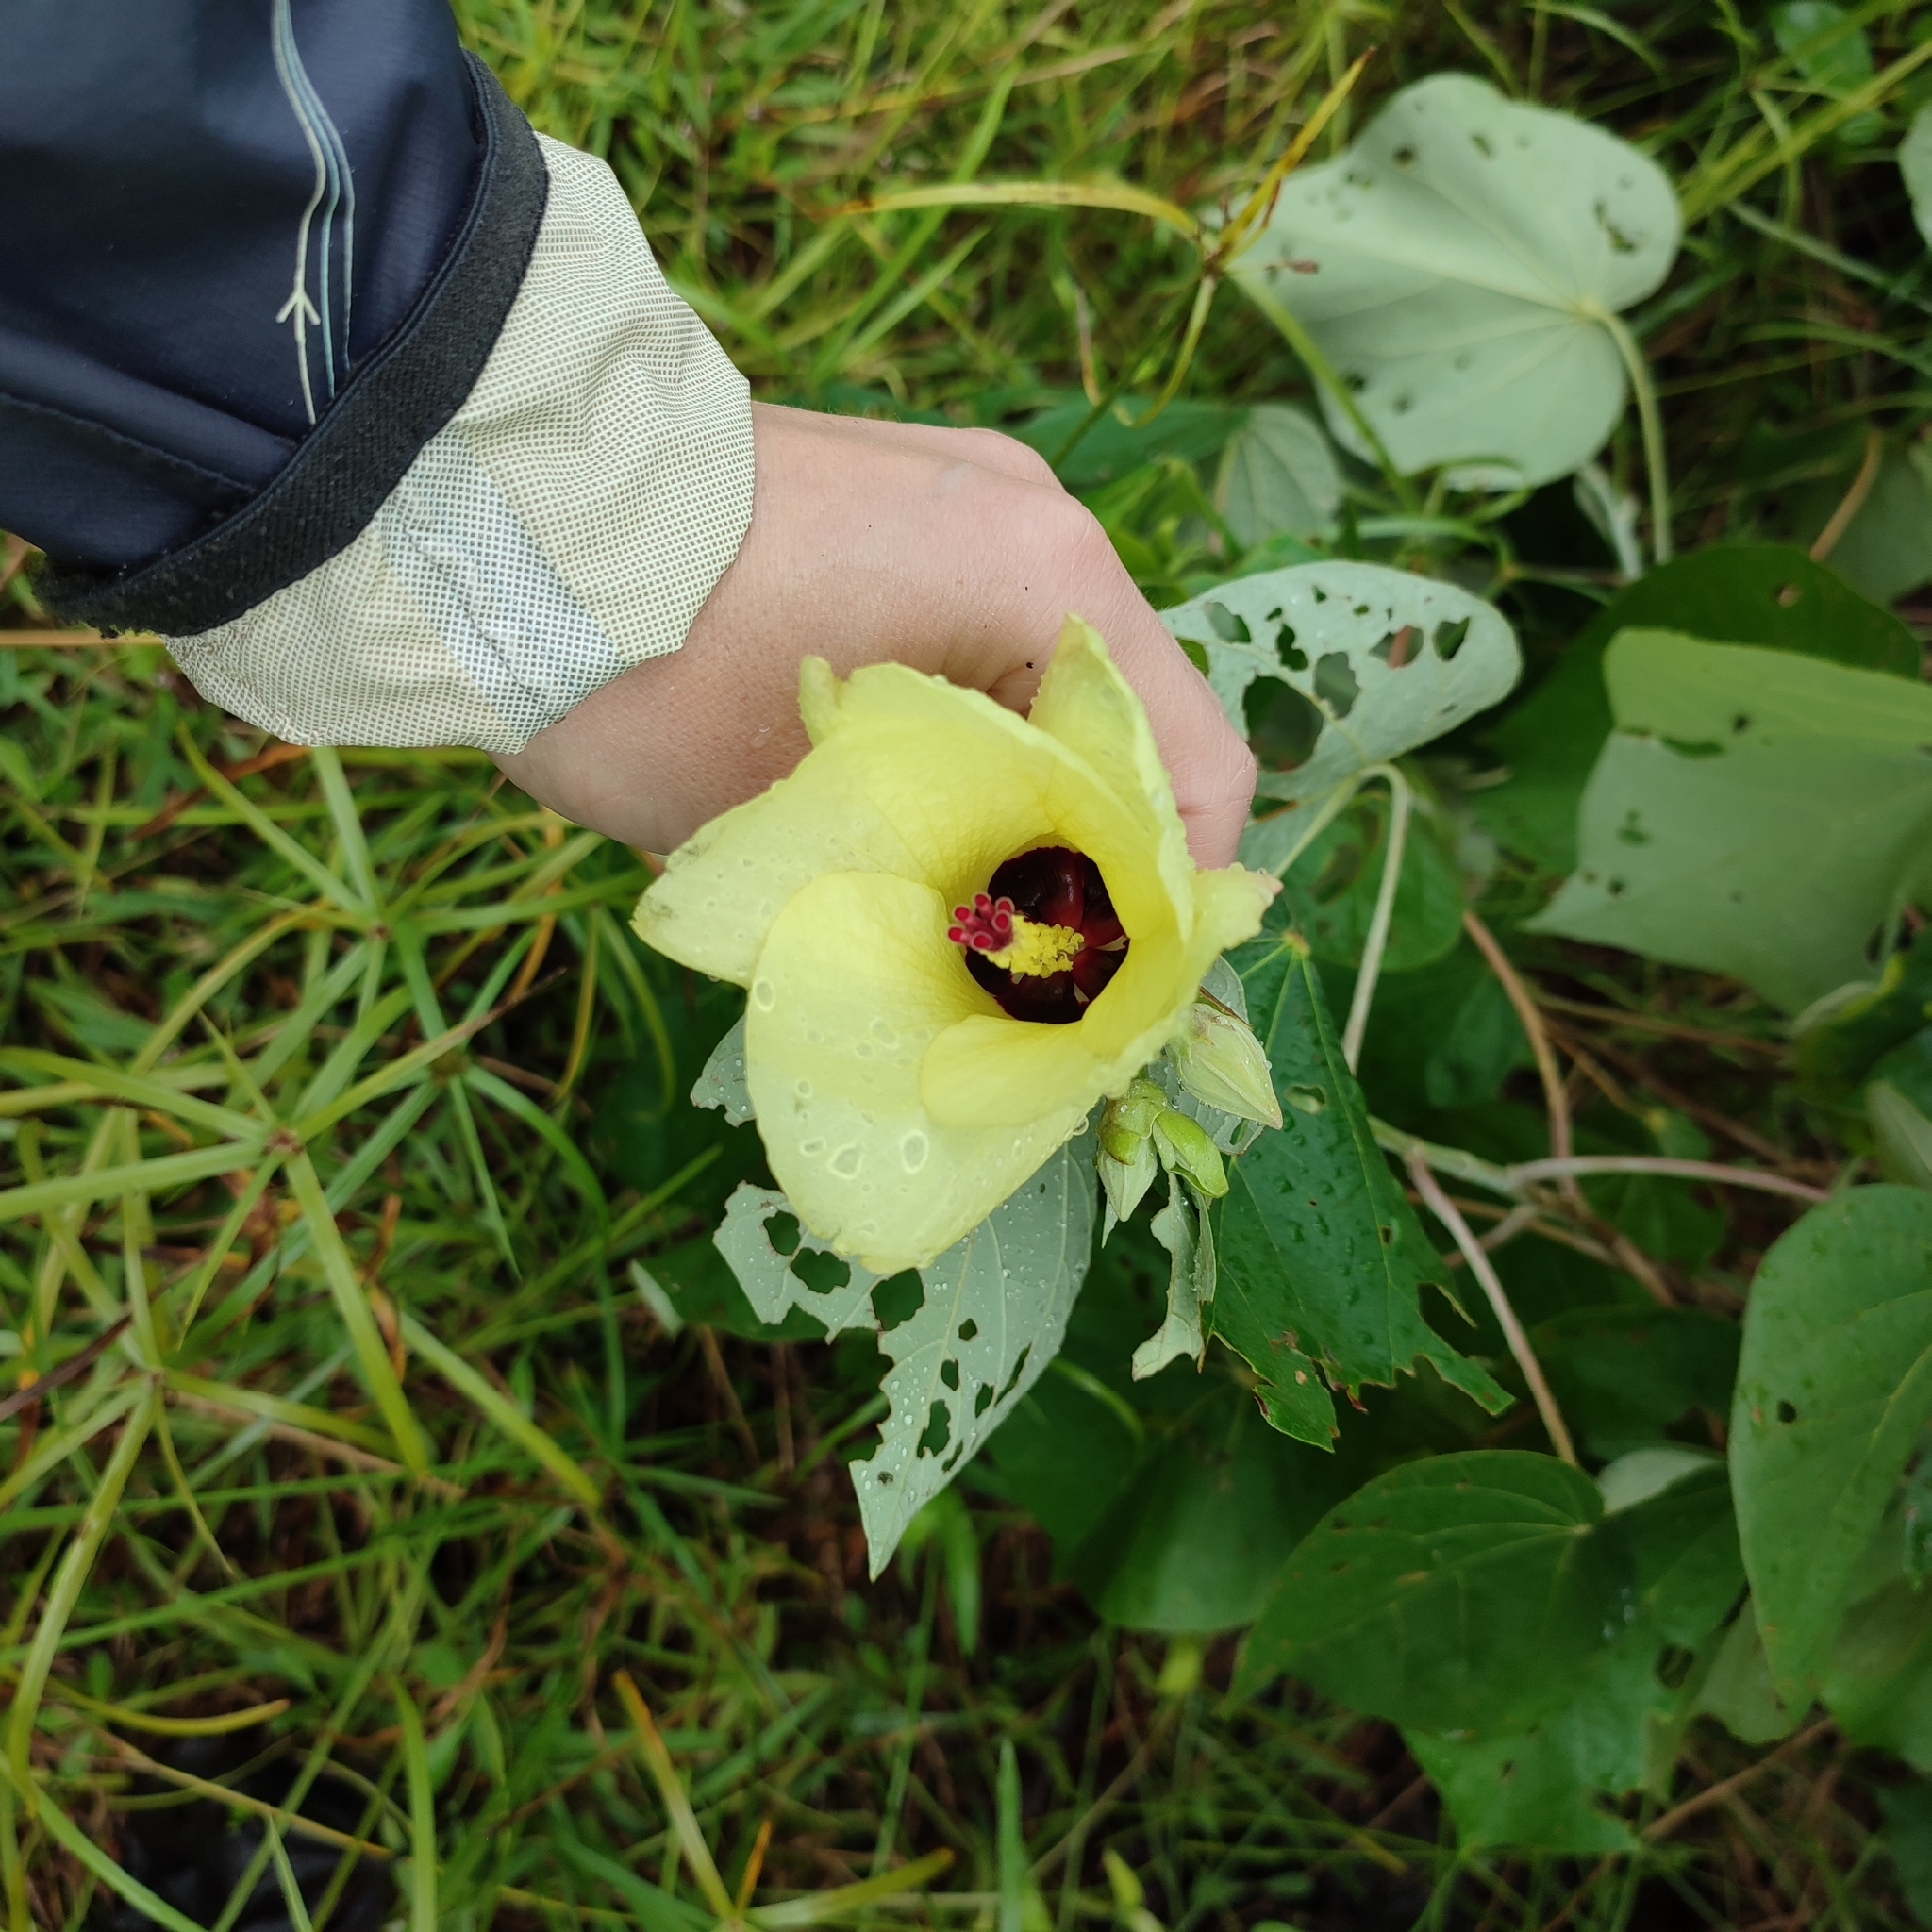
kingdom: Plantae
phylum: Tracheophyta
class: Magnoliopsida
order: Malvales
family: Malvaceae
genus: Talipariti
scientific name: Talipariti tiliaceum
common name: Sea hibiscus
